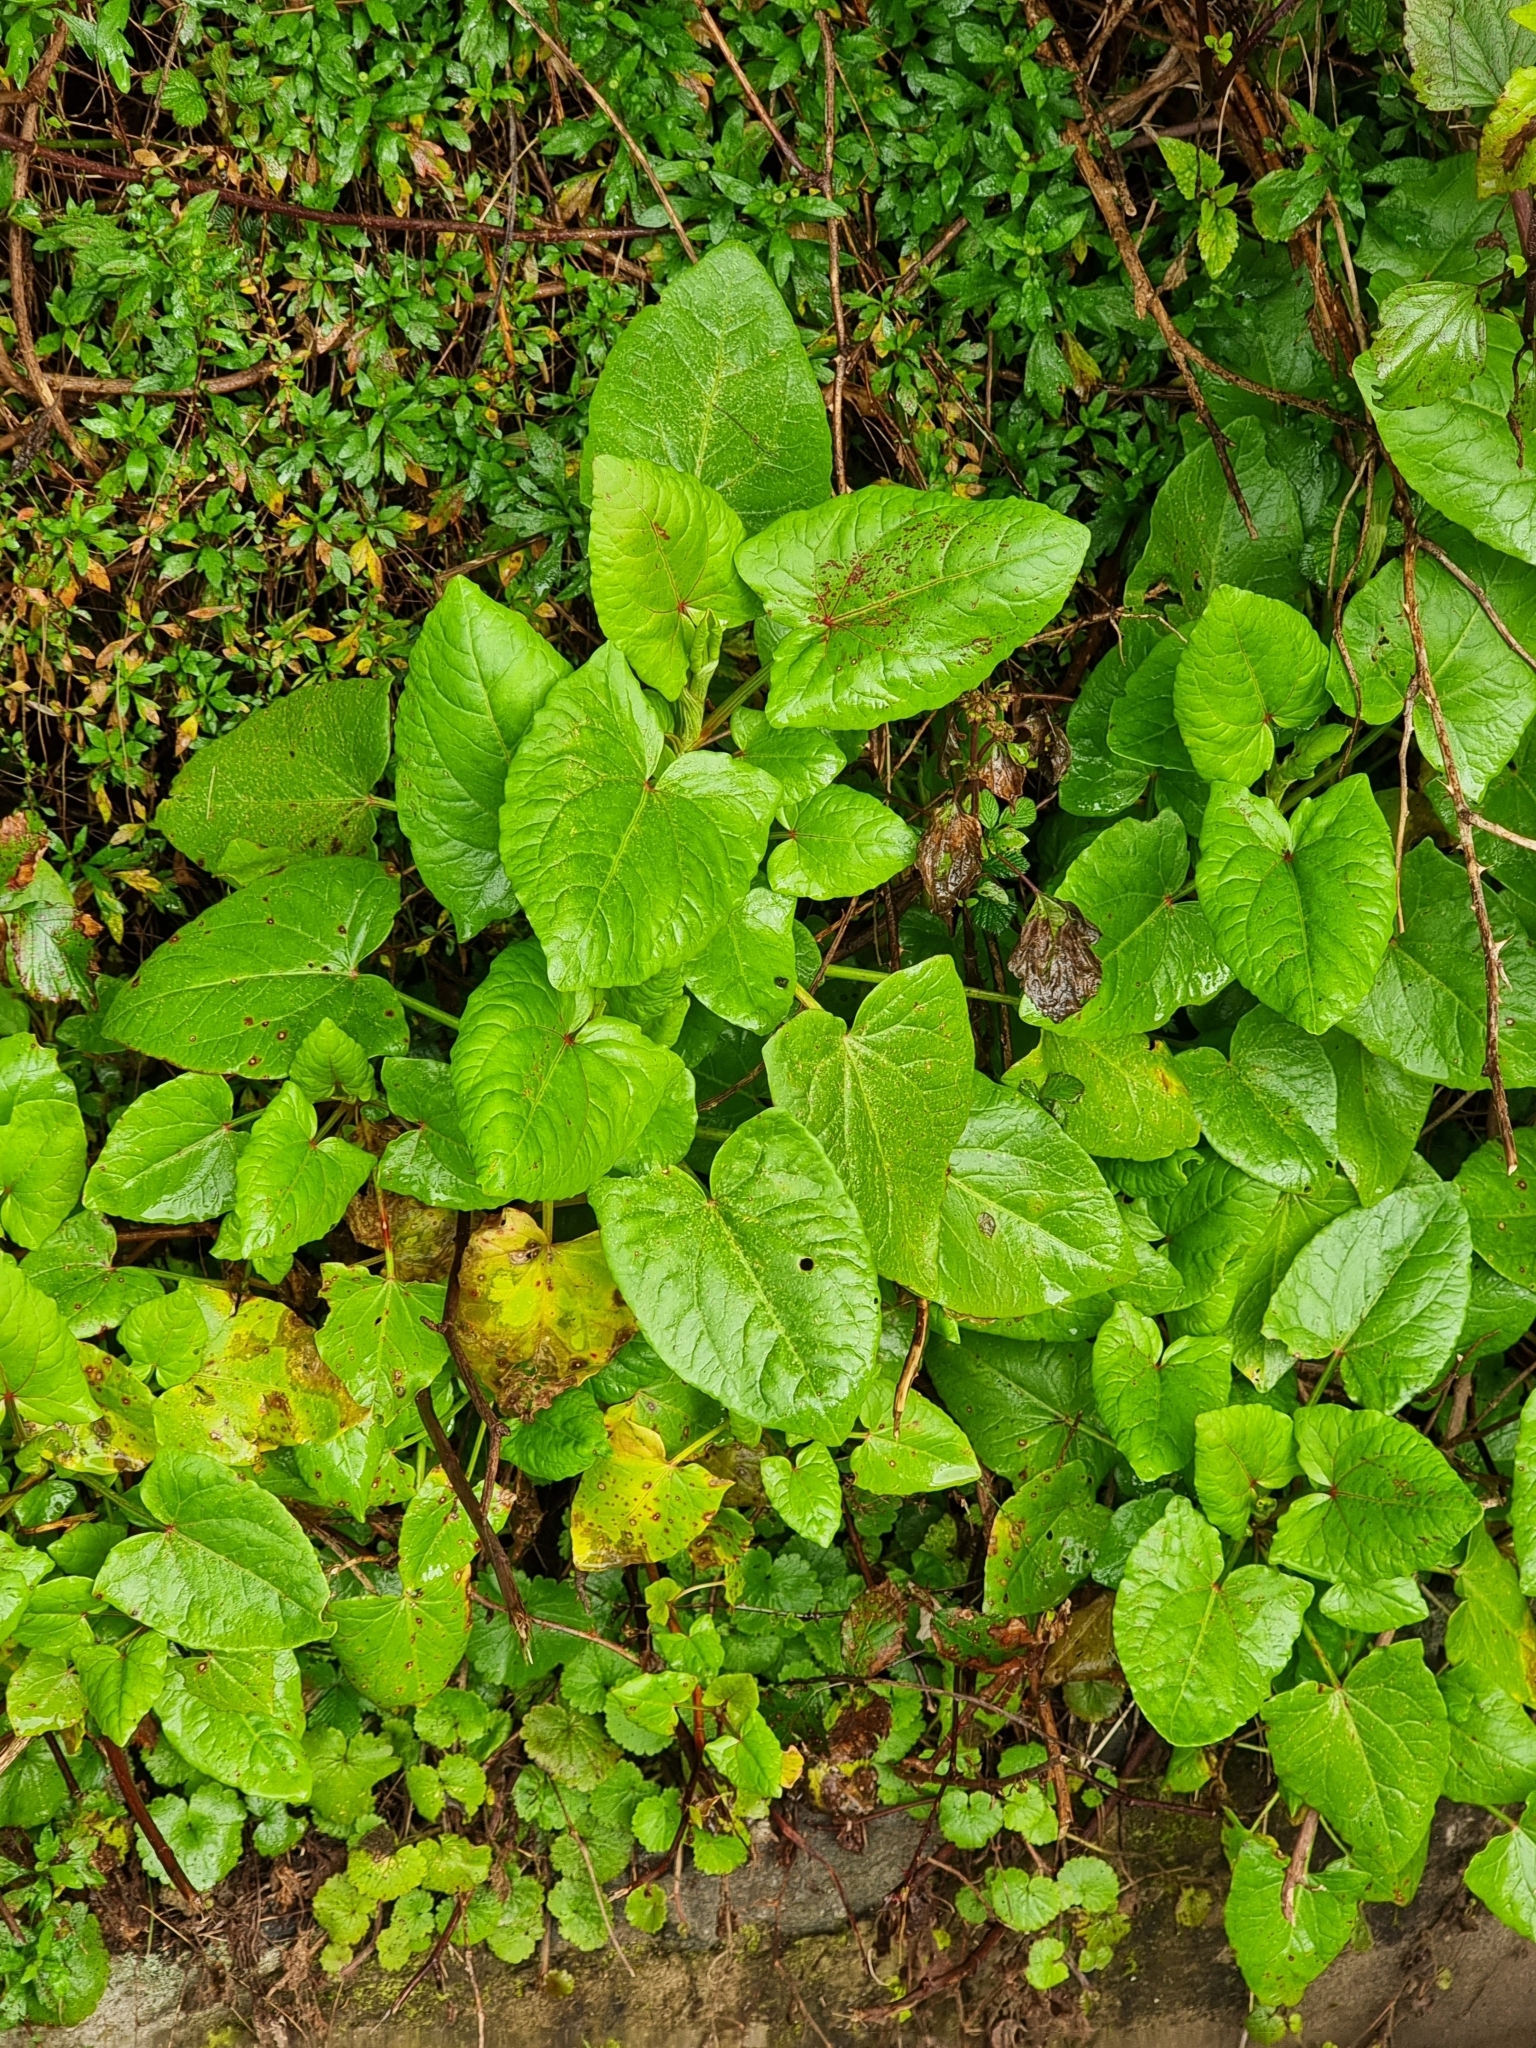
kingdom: Plantae
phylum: Tracheophyta
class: Magnoliopsida
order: Caryophyllales
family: Polygonaceae
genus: Rumex
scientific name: Rumex maderensis
